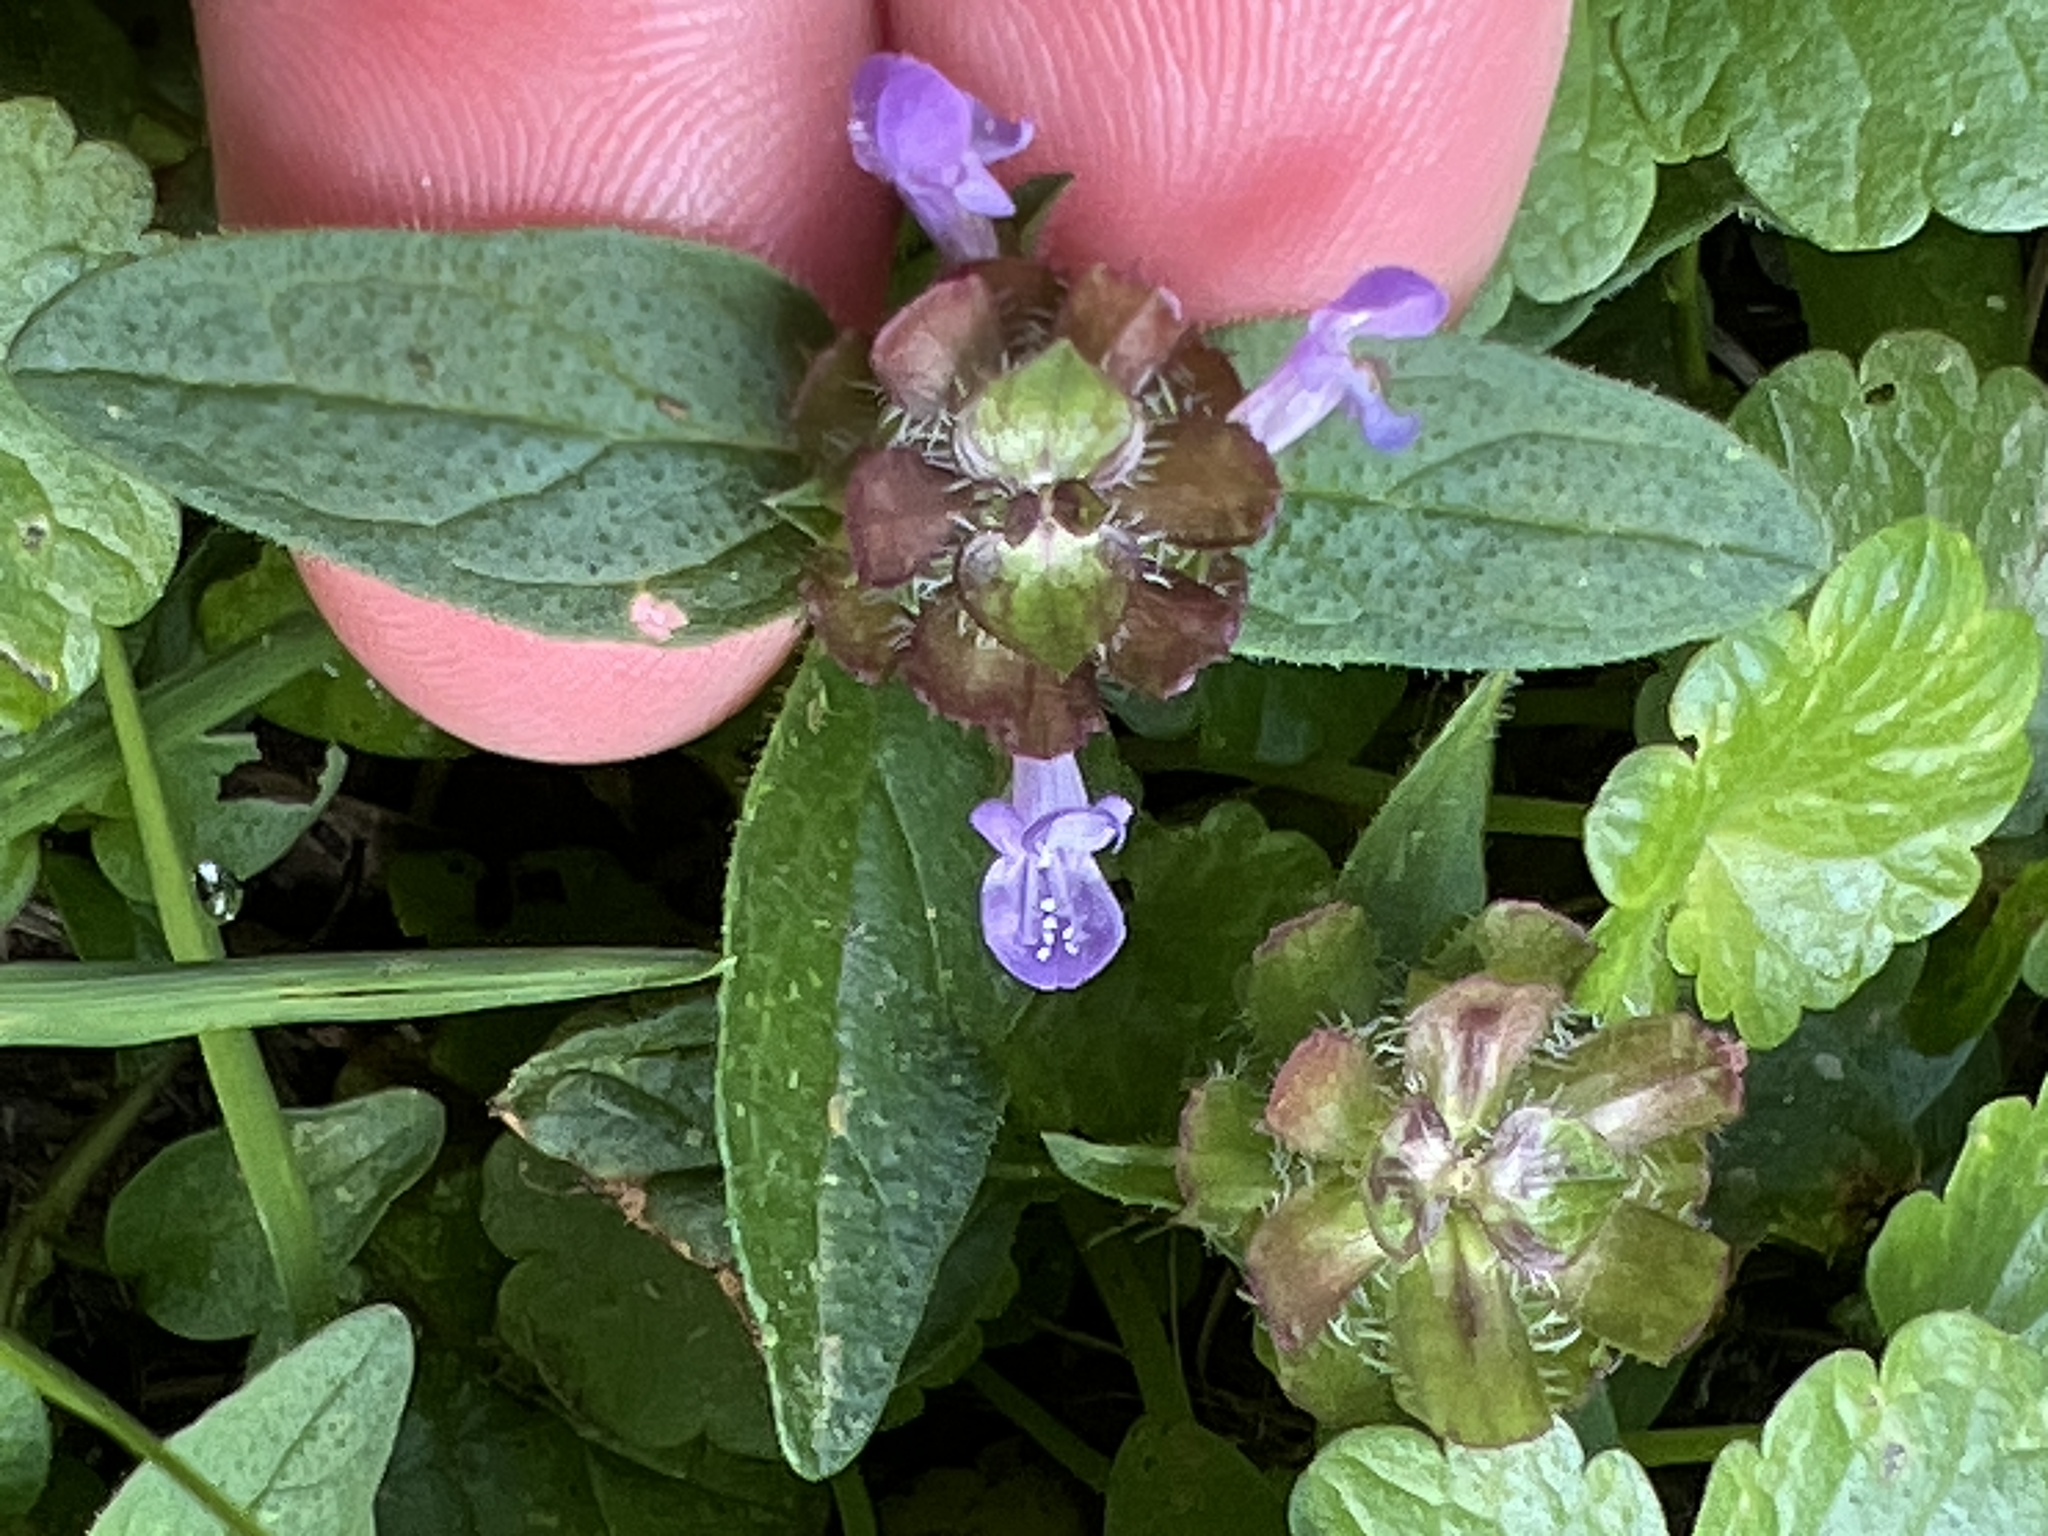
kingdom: Plantae
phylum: Tracheophyta
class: Magnoliopsida
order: Lamiales
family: Lamiaceae
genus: Prunella
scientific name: Prunella vulgaris
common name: Heal-all
